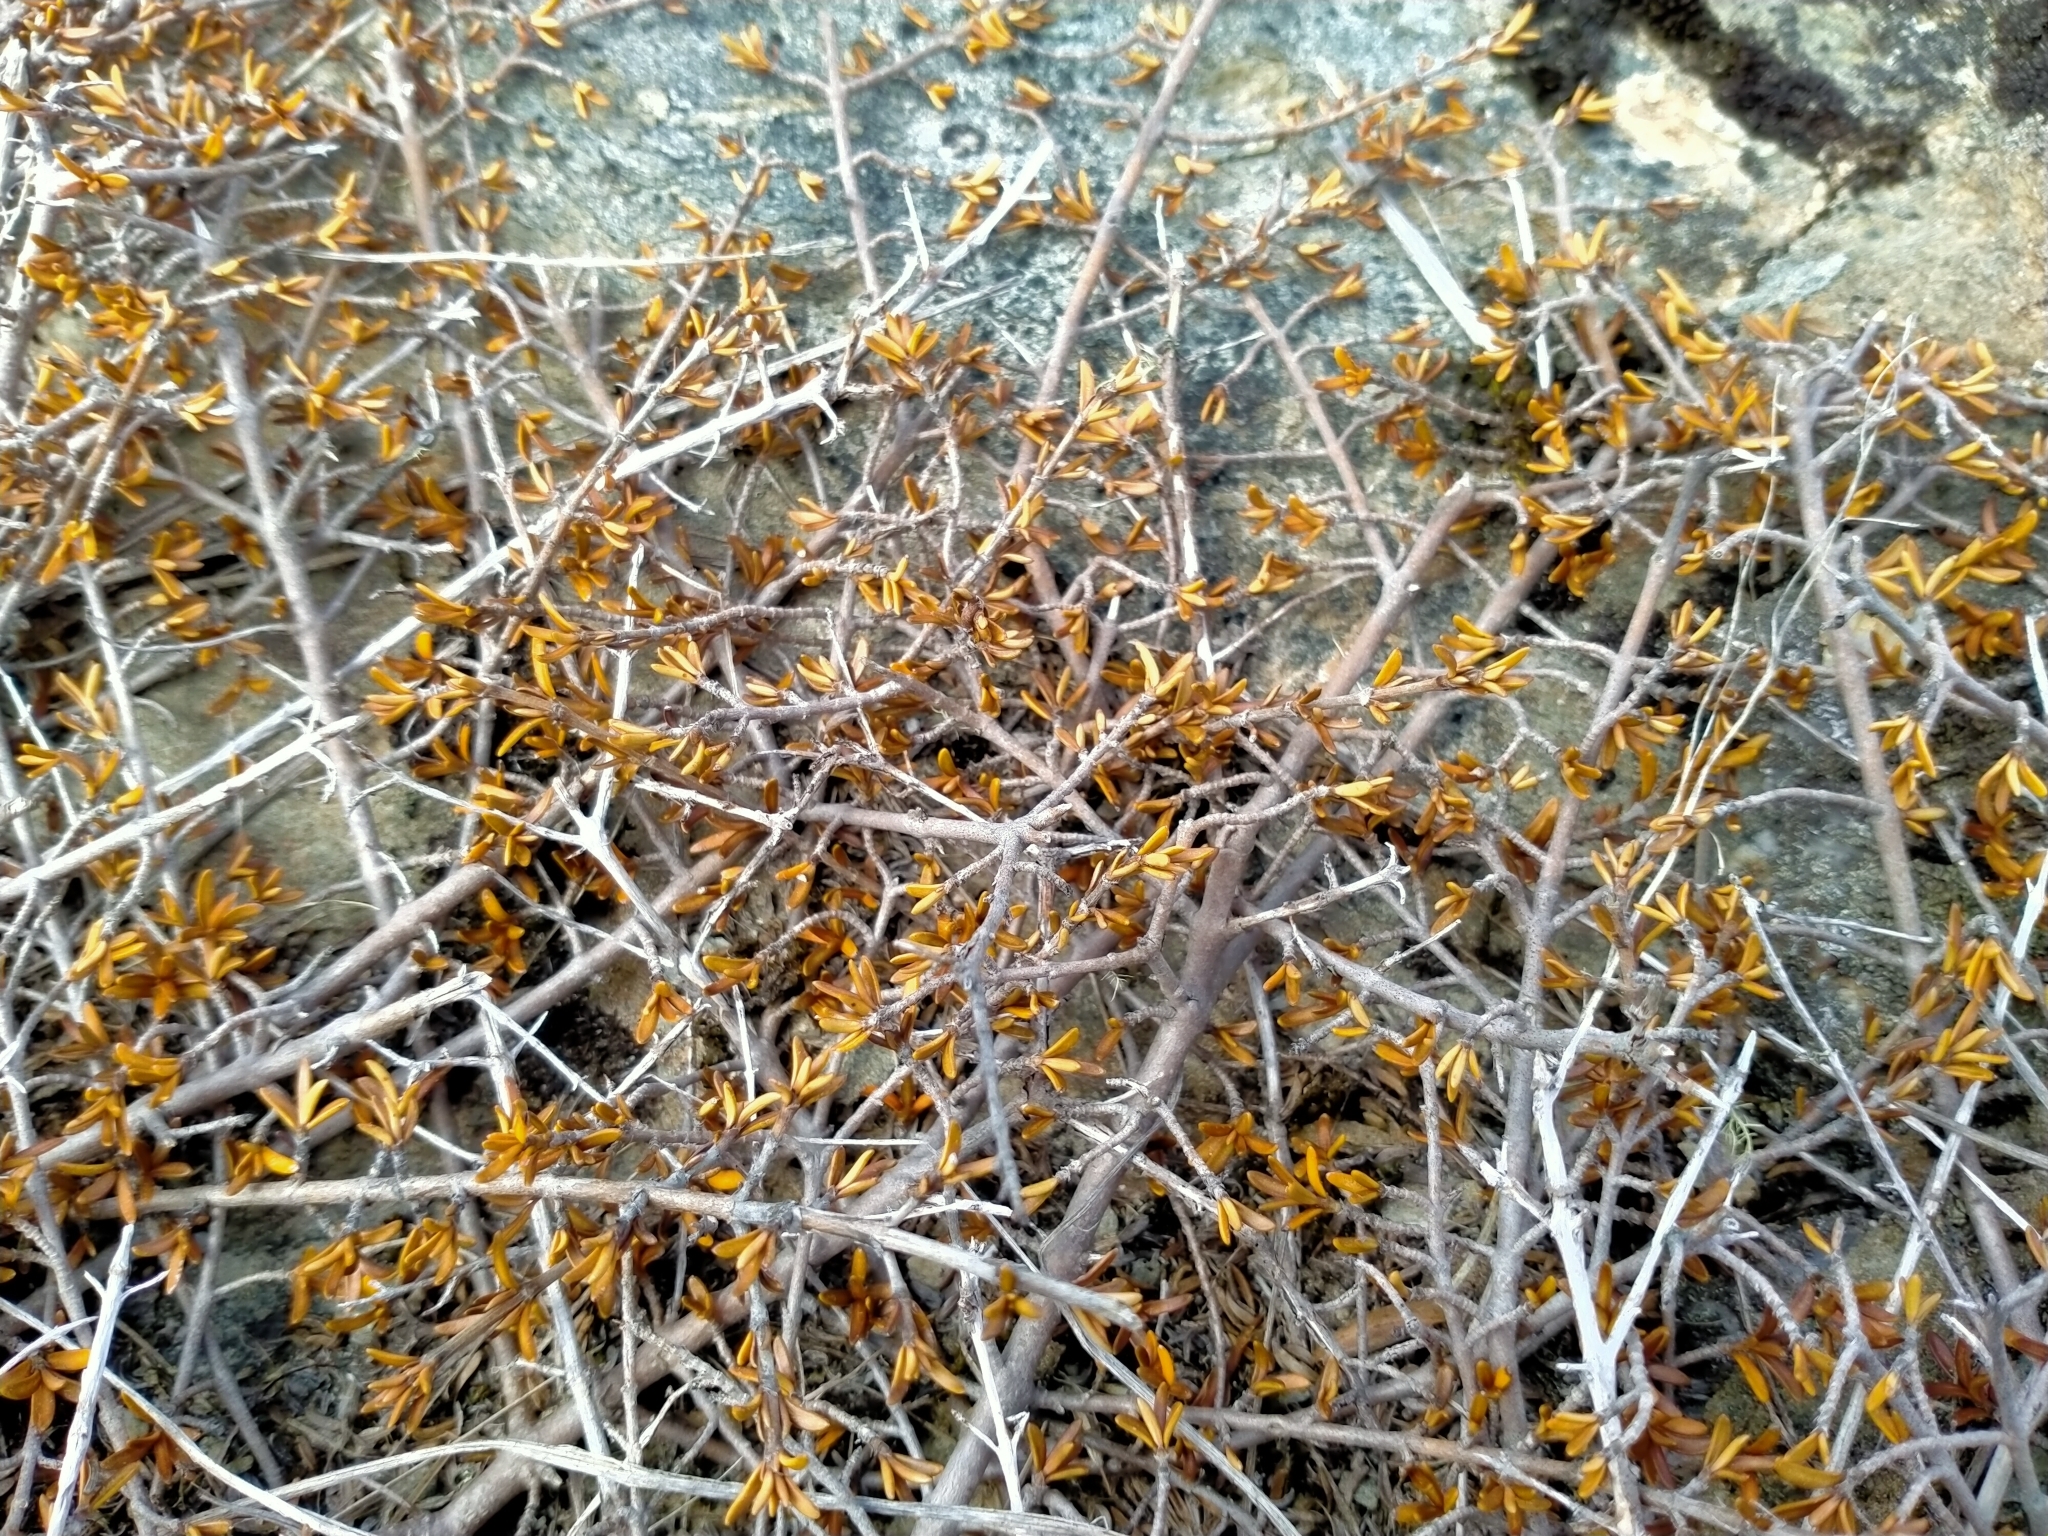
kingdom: Plantae
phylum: Tracheophyta
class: Magnoliopsida
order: Gentianales
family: Rubiaceae
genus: Coprosma
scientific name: Coprosma cheesemanii
